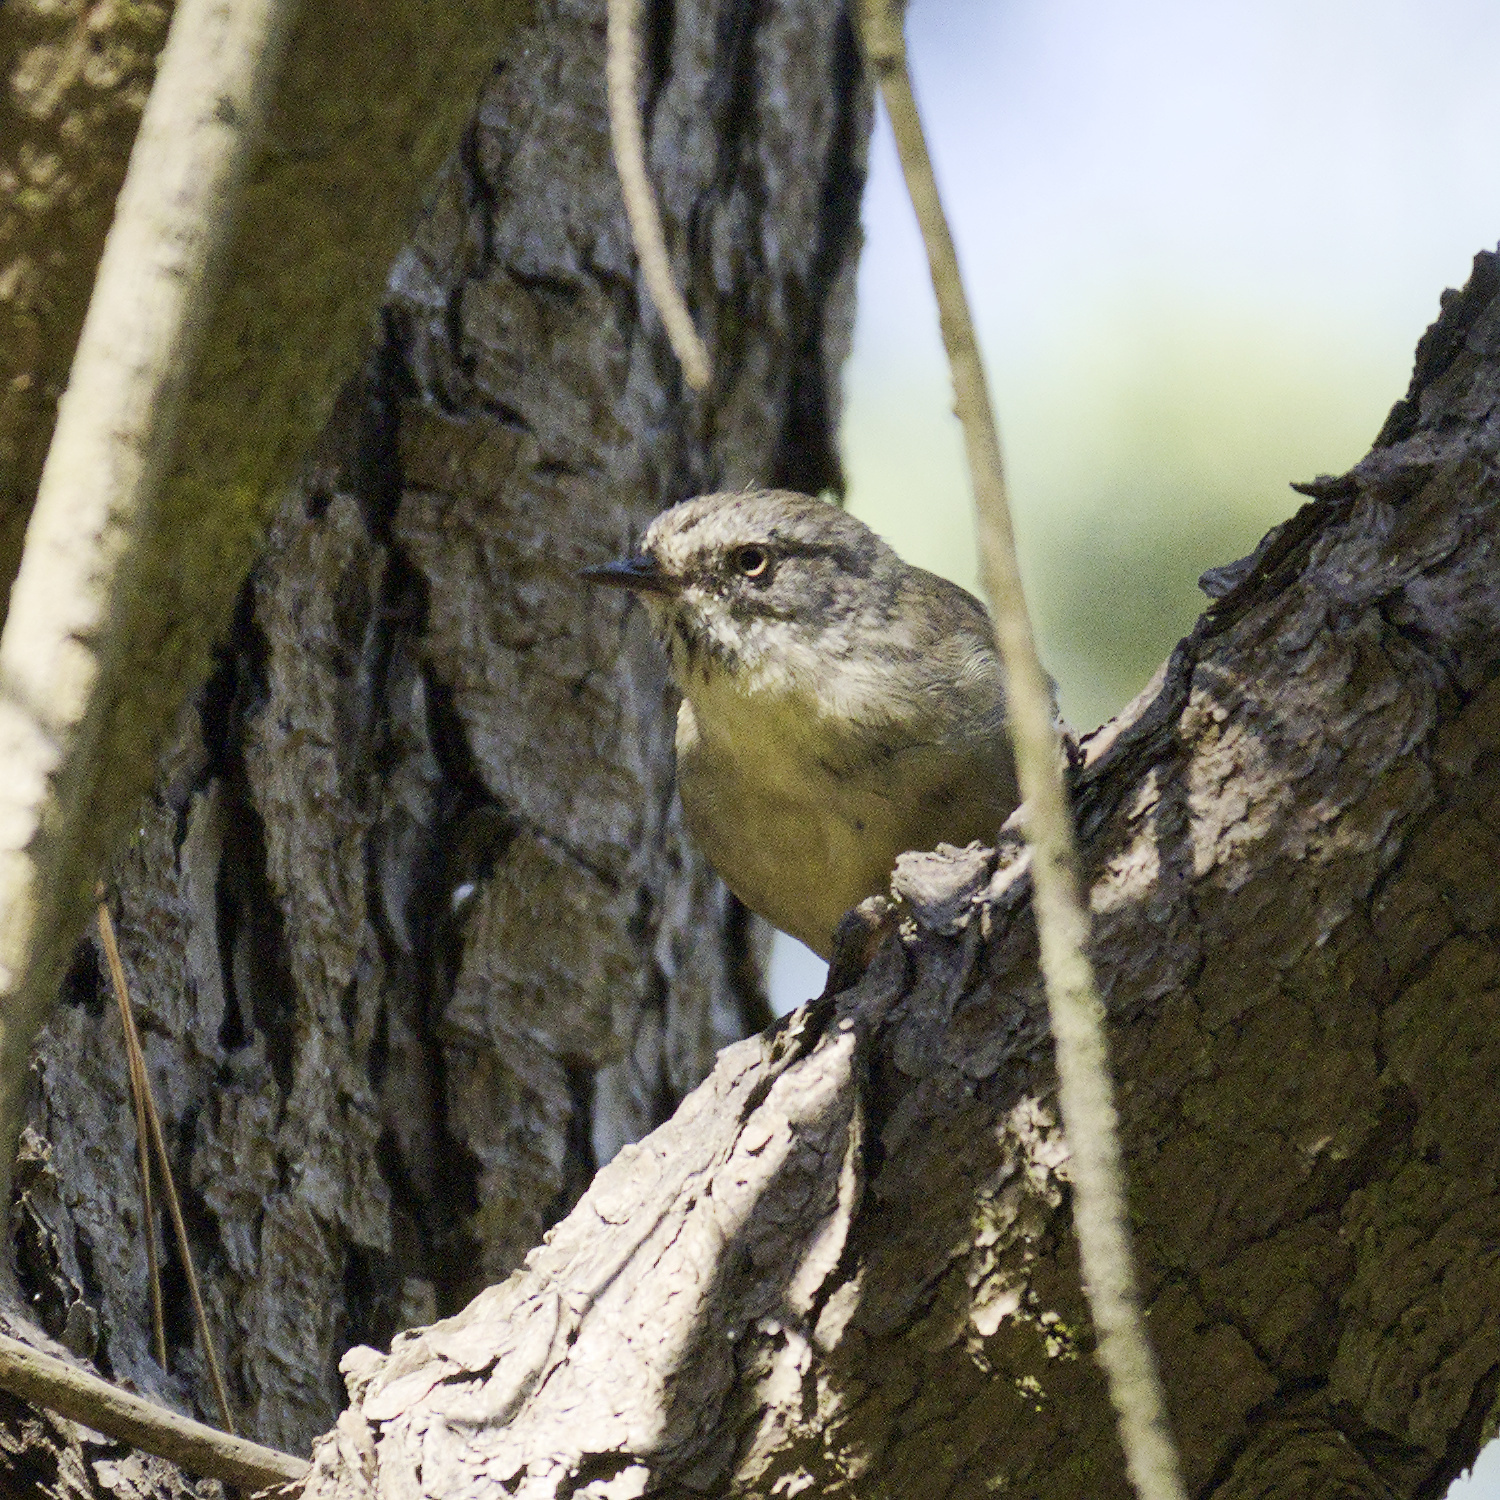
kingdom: Animalia
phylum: Chordata
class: Aves
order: Passeriformes
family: Acanthizidae
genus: Sericornis
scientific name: Sericornis frontalis
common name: White-browed scrubwren
